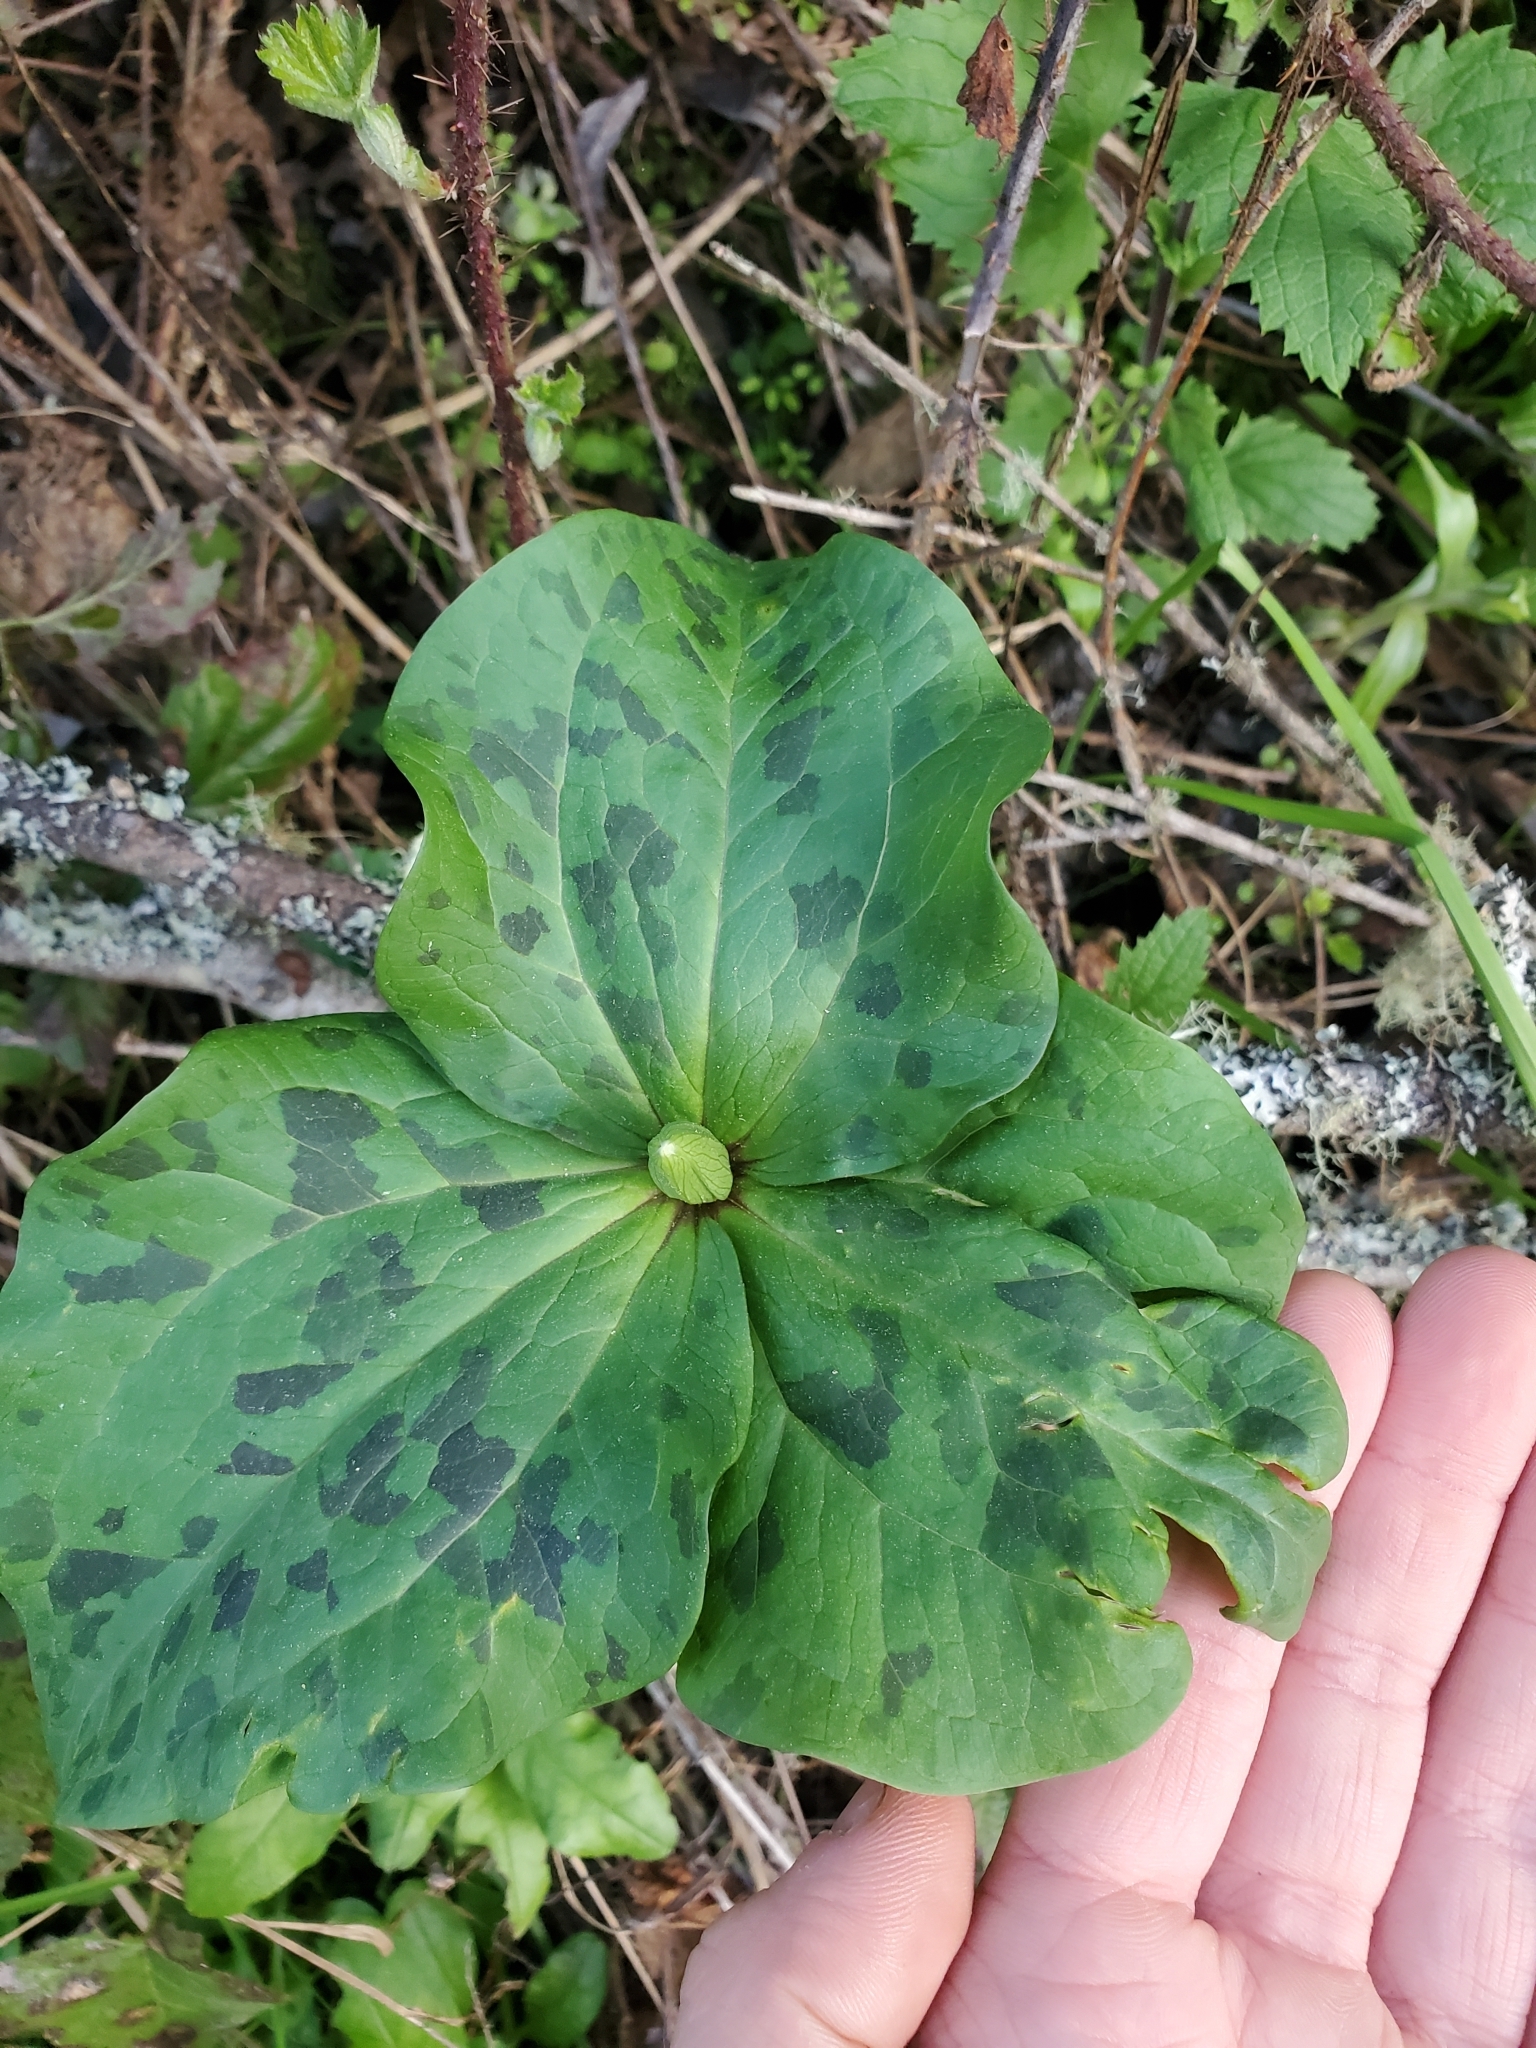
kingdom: Plantae
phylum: Tracheophyta
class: Liliopsida
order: Liliales
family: Melanthiaceae
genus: Trillium
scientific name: Trillium chloropetalum
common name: Giant trillium
